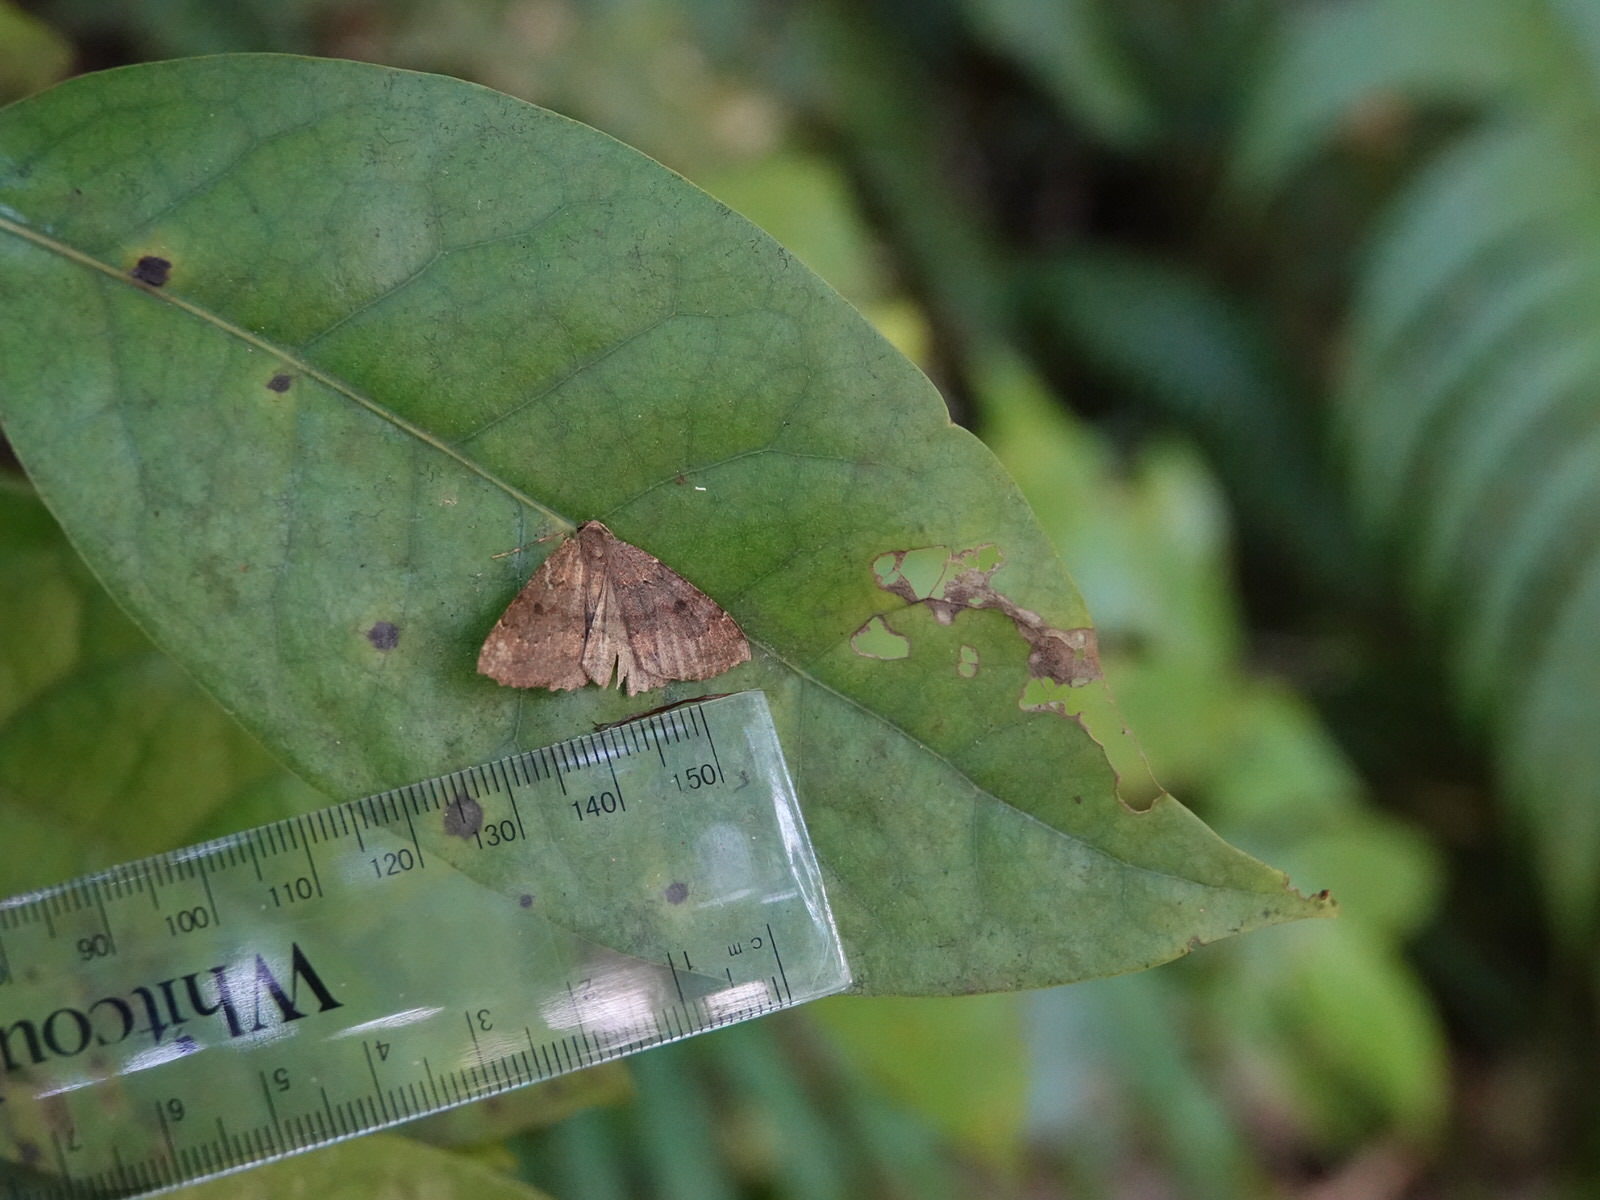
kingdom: Animalia
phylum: Arthropoda
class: Insecta
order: Lepidoptera
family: Geometridae
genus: Cleora
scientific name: Cleora scriptaria
